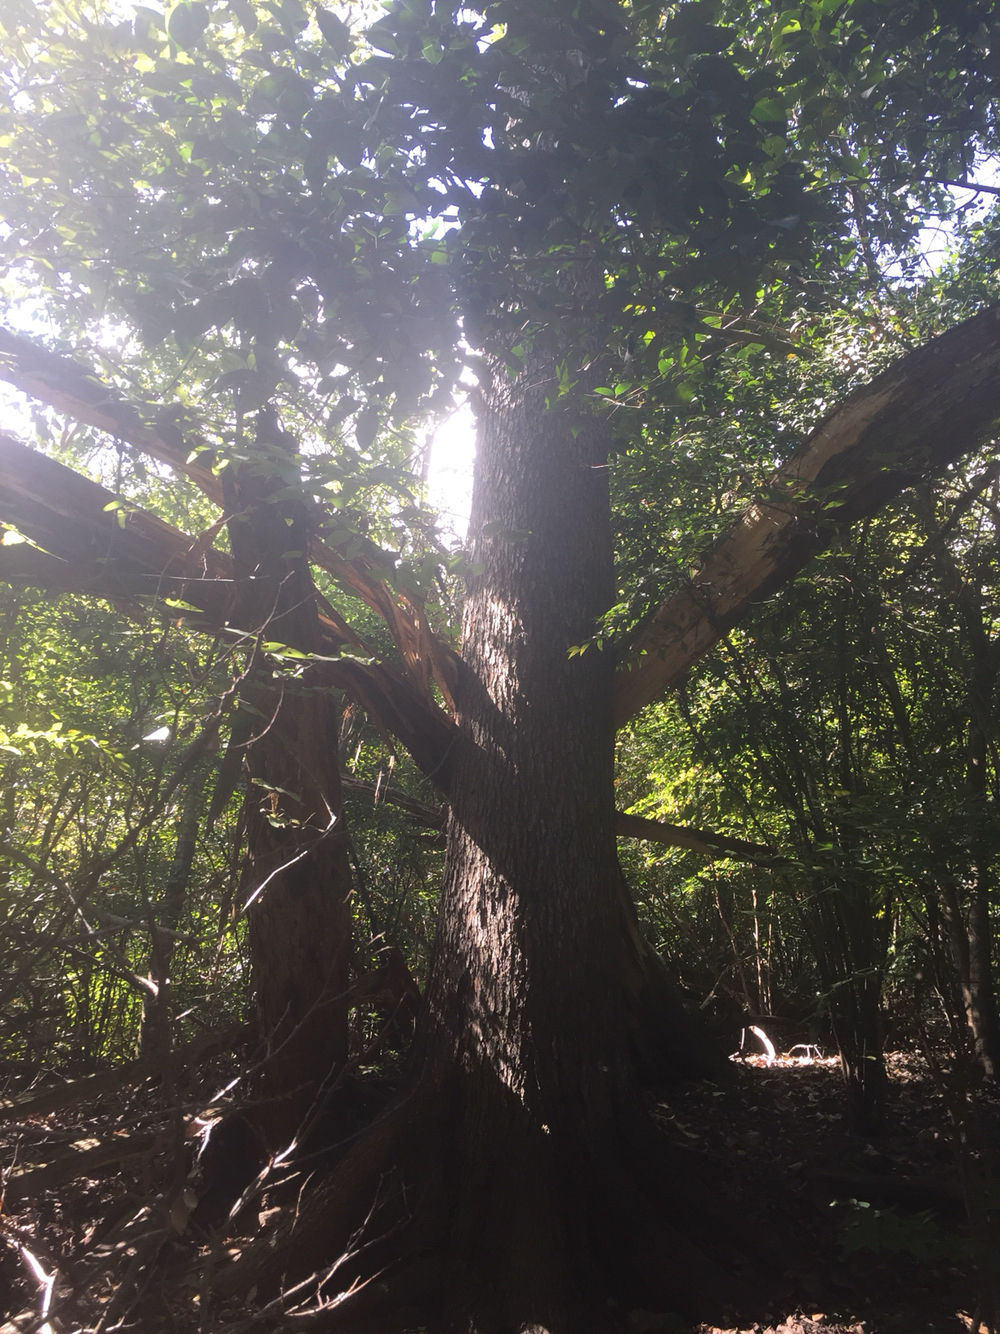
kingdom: Plantae
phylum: Tracheophyta
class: Magnoliopsida
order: Rosales
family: Ulmaceae
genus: Ulmus
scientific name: Ulmus crassifolia
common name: Basket elm
